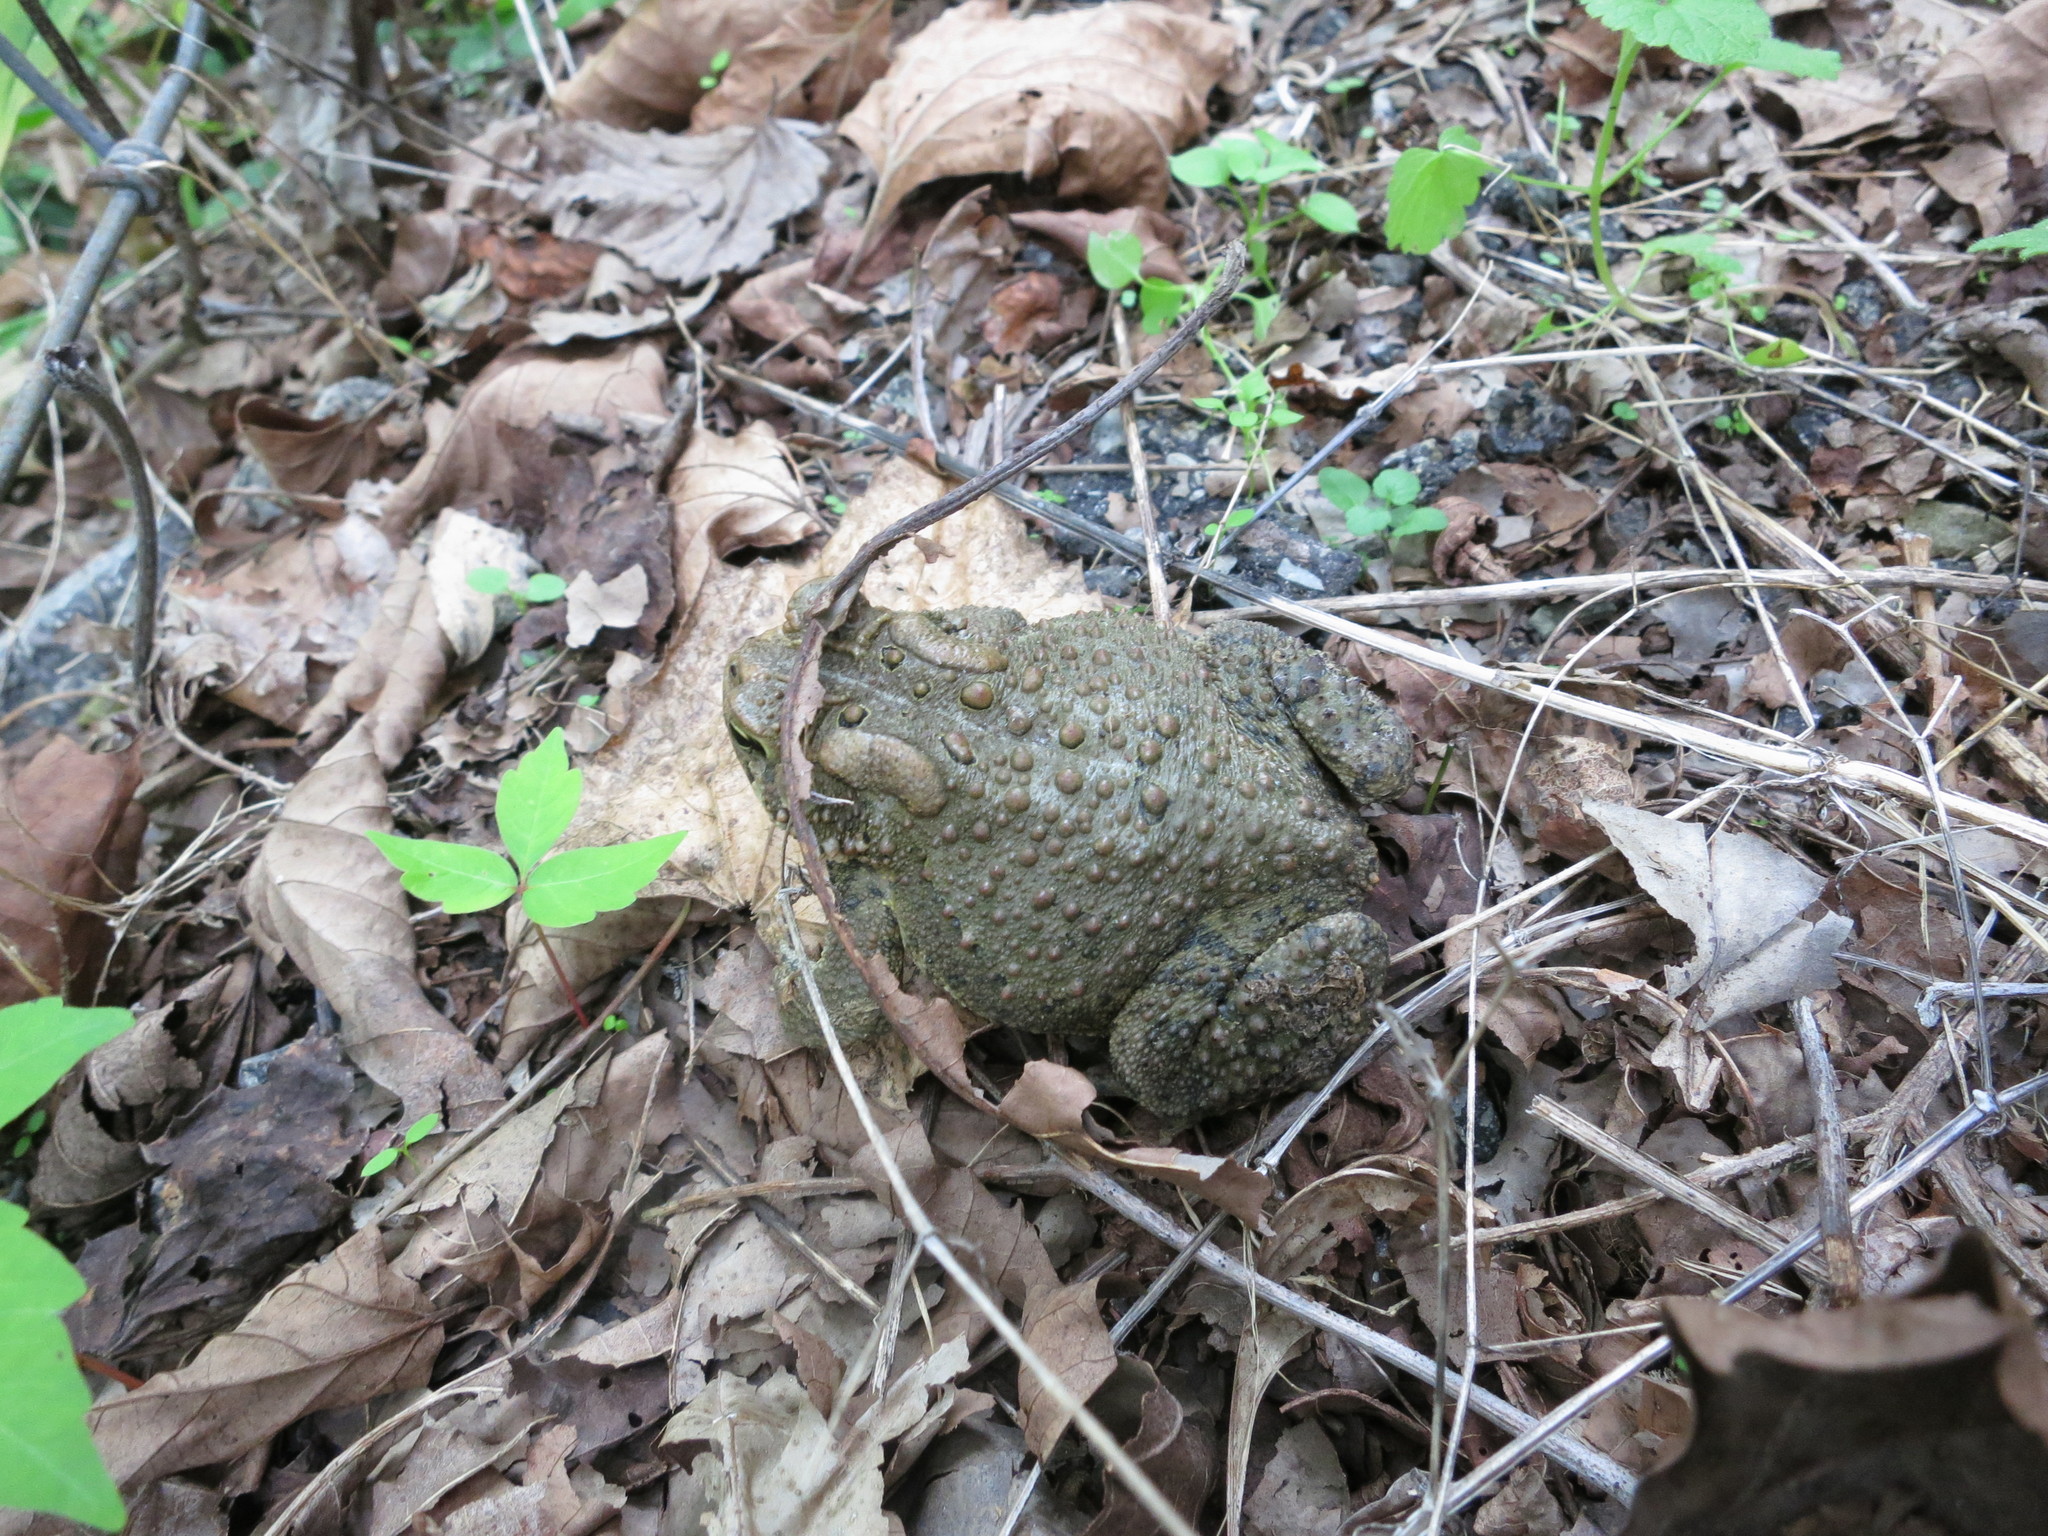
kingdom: Animalia
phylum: Chordata
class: Amphibia
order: Anura
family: Bufonidae
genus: Anaxyrus
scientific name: Anaxyrus americanus
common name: American toad
